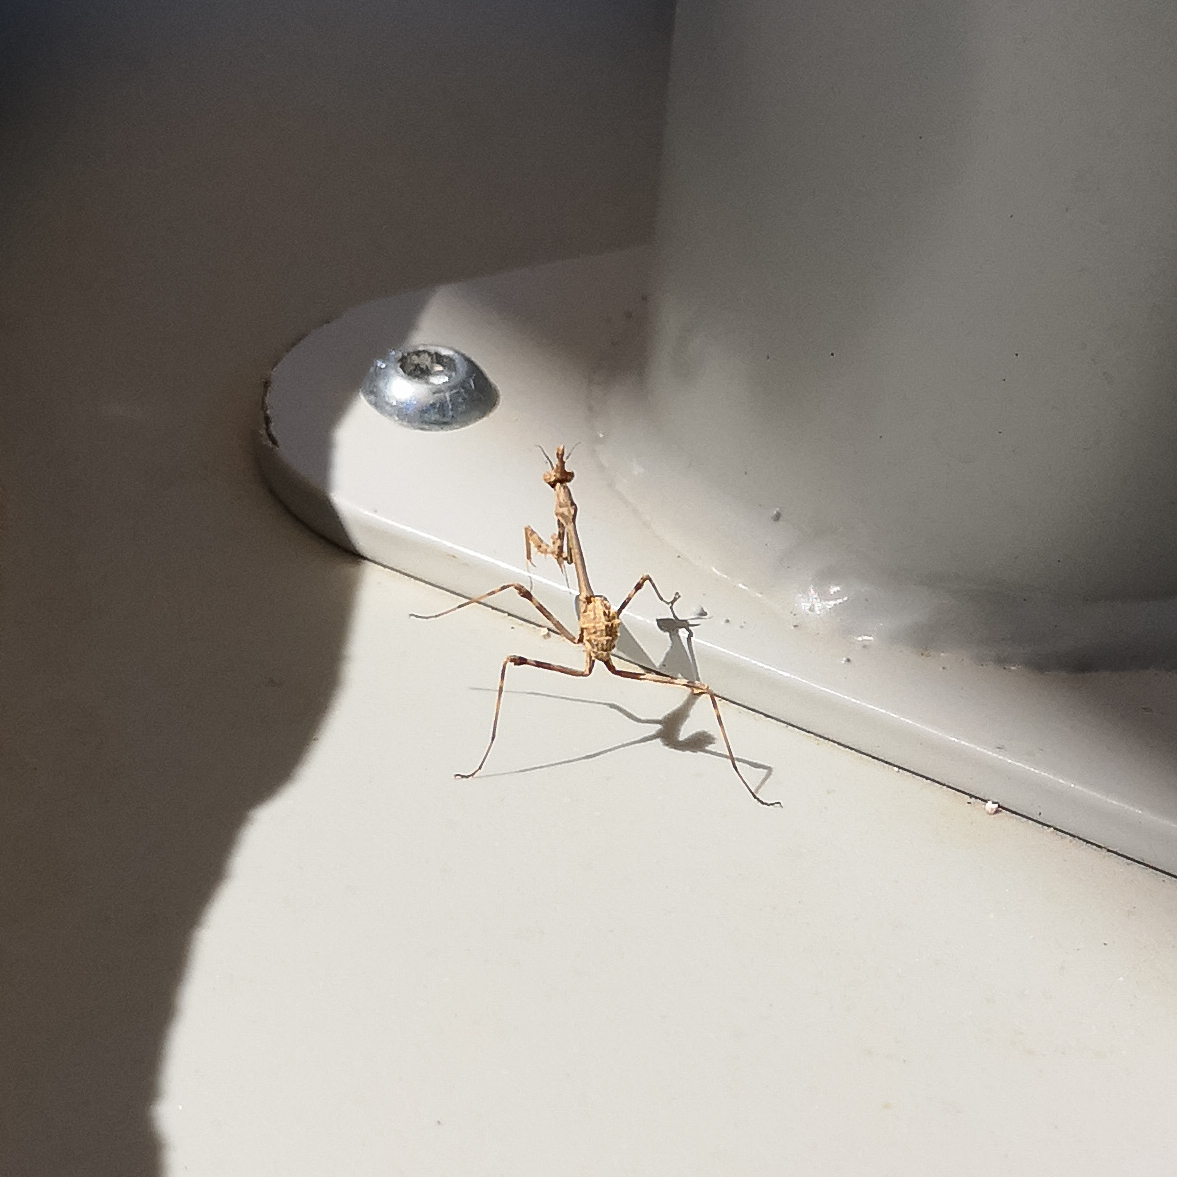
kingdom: Animalia
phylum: Arthropoda
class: Insecta
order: Mantodea
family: Empusidae
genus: Empusa
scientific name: Empusa pennata
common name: Conehead mantis
